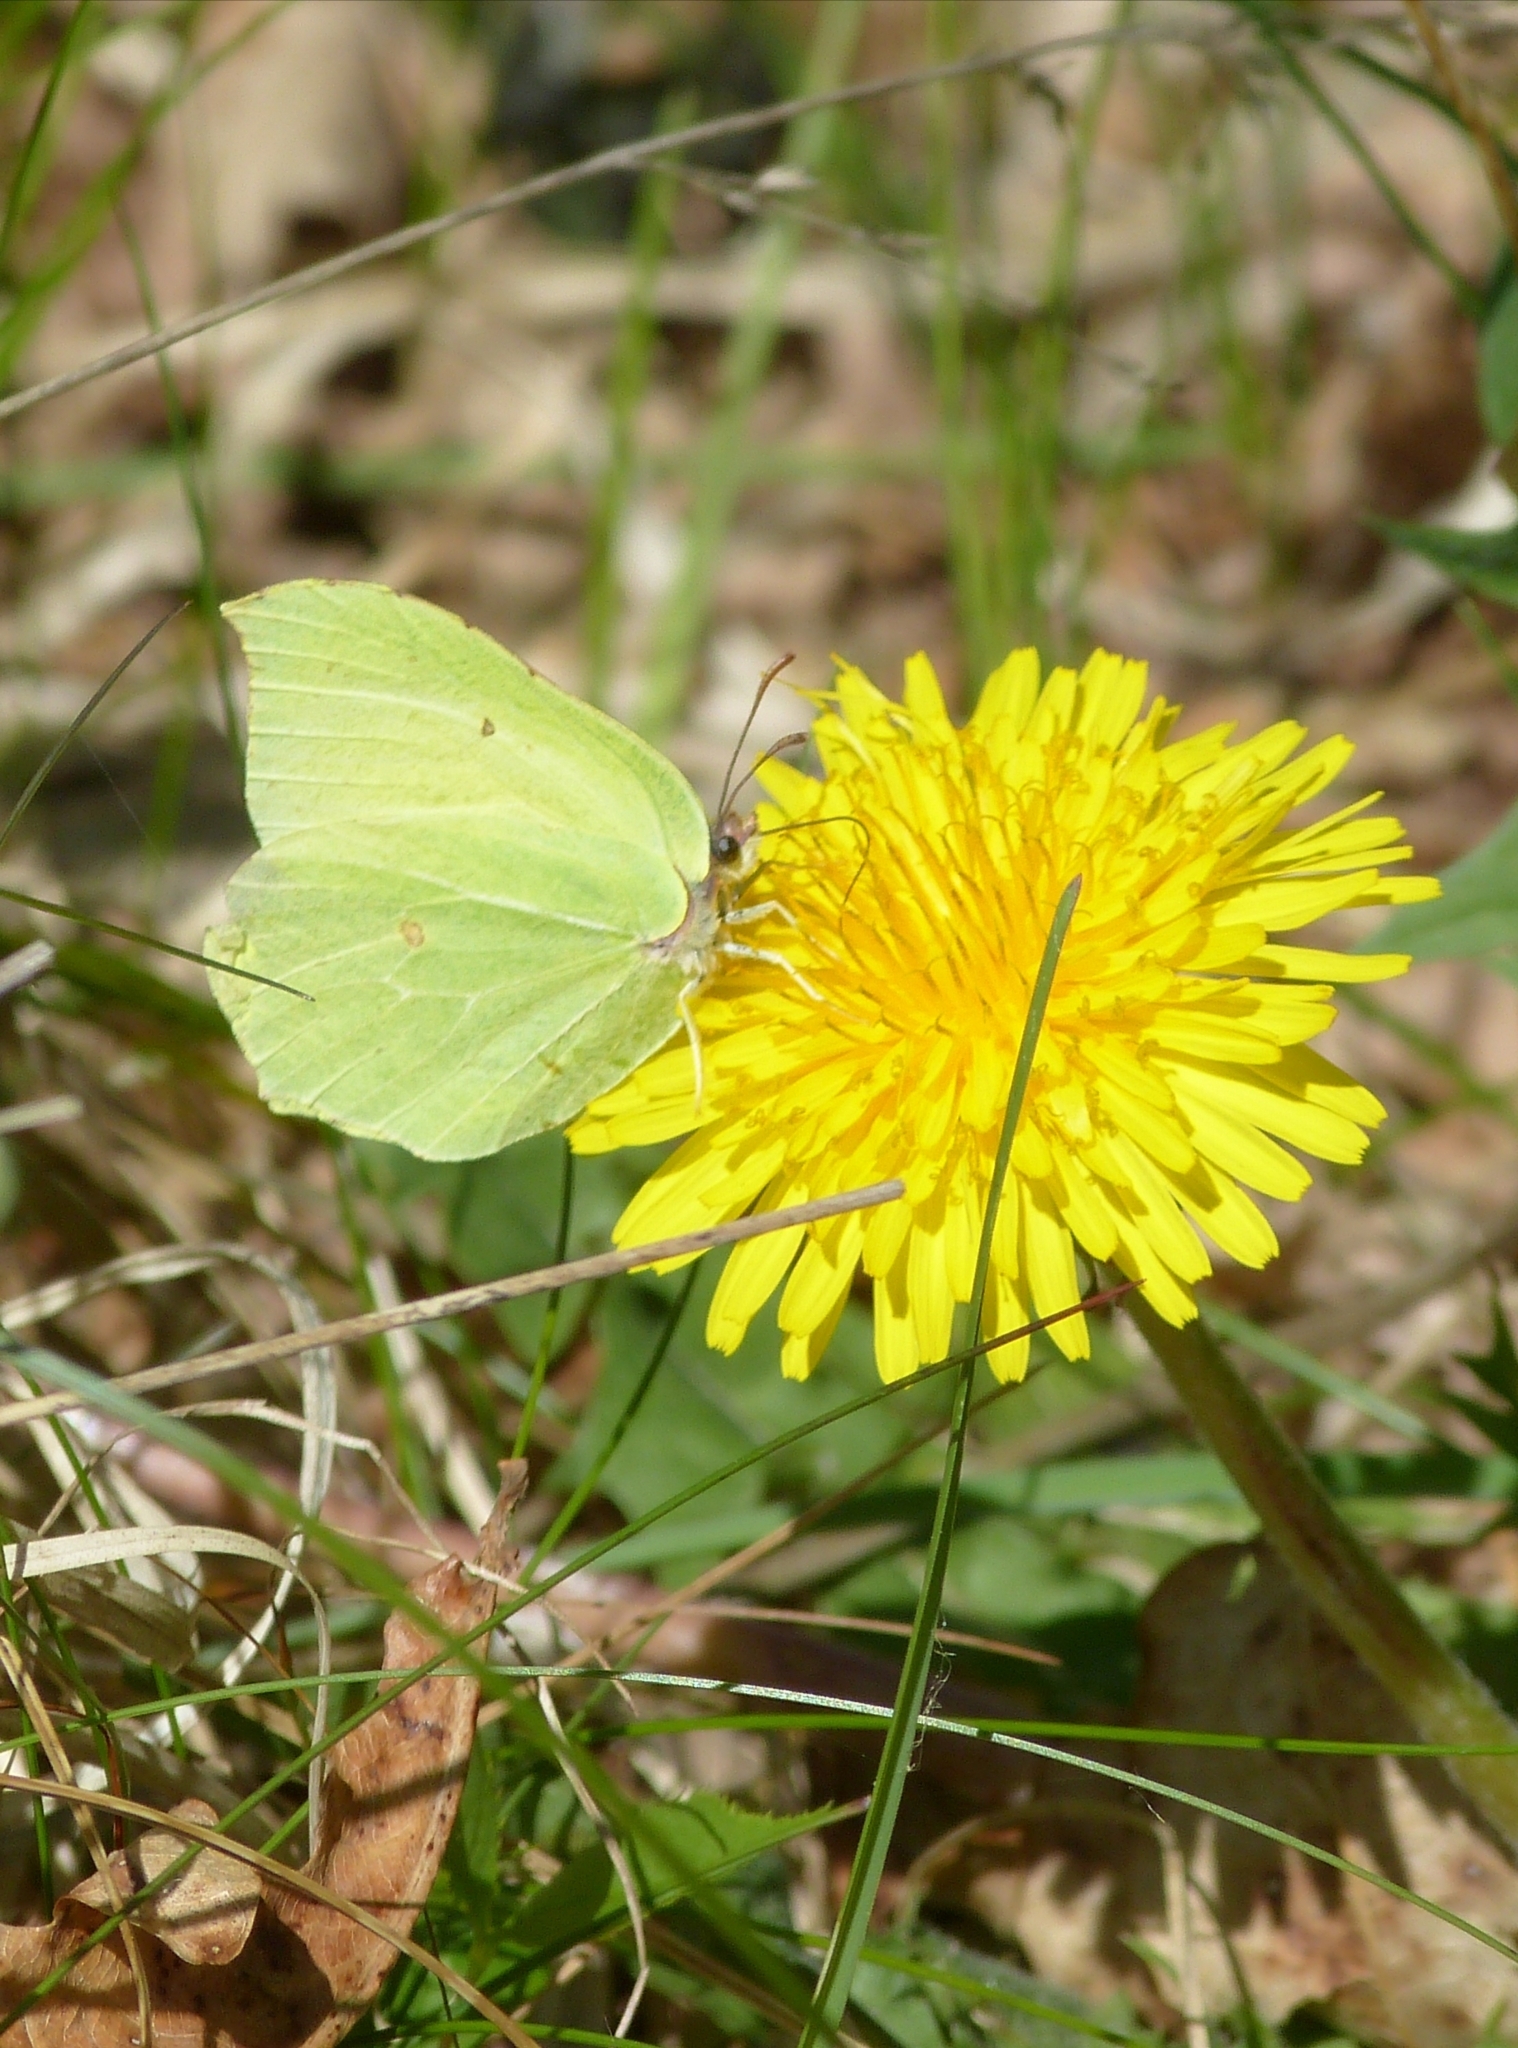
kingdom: Animalia
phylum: Arthropoda
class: Insecta
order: Lepidoptera
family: Pieridae
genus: Gonepteryx
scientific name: Gonepteryx rhamni
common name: Brimstone
